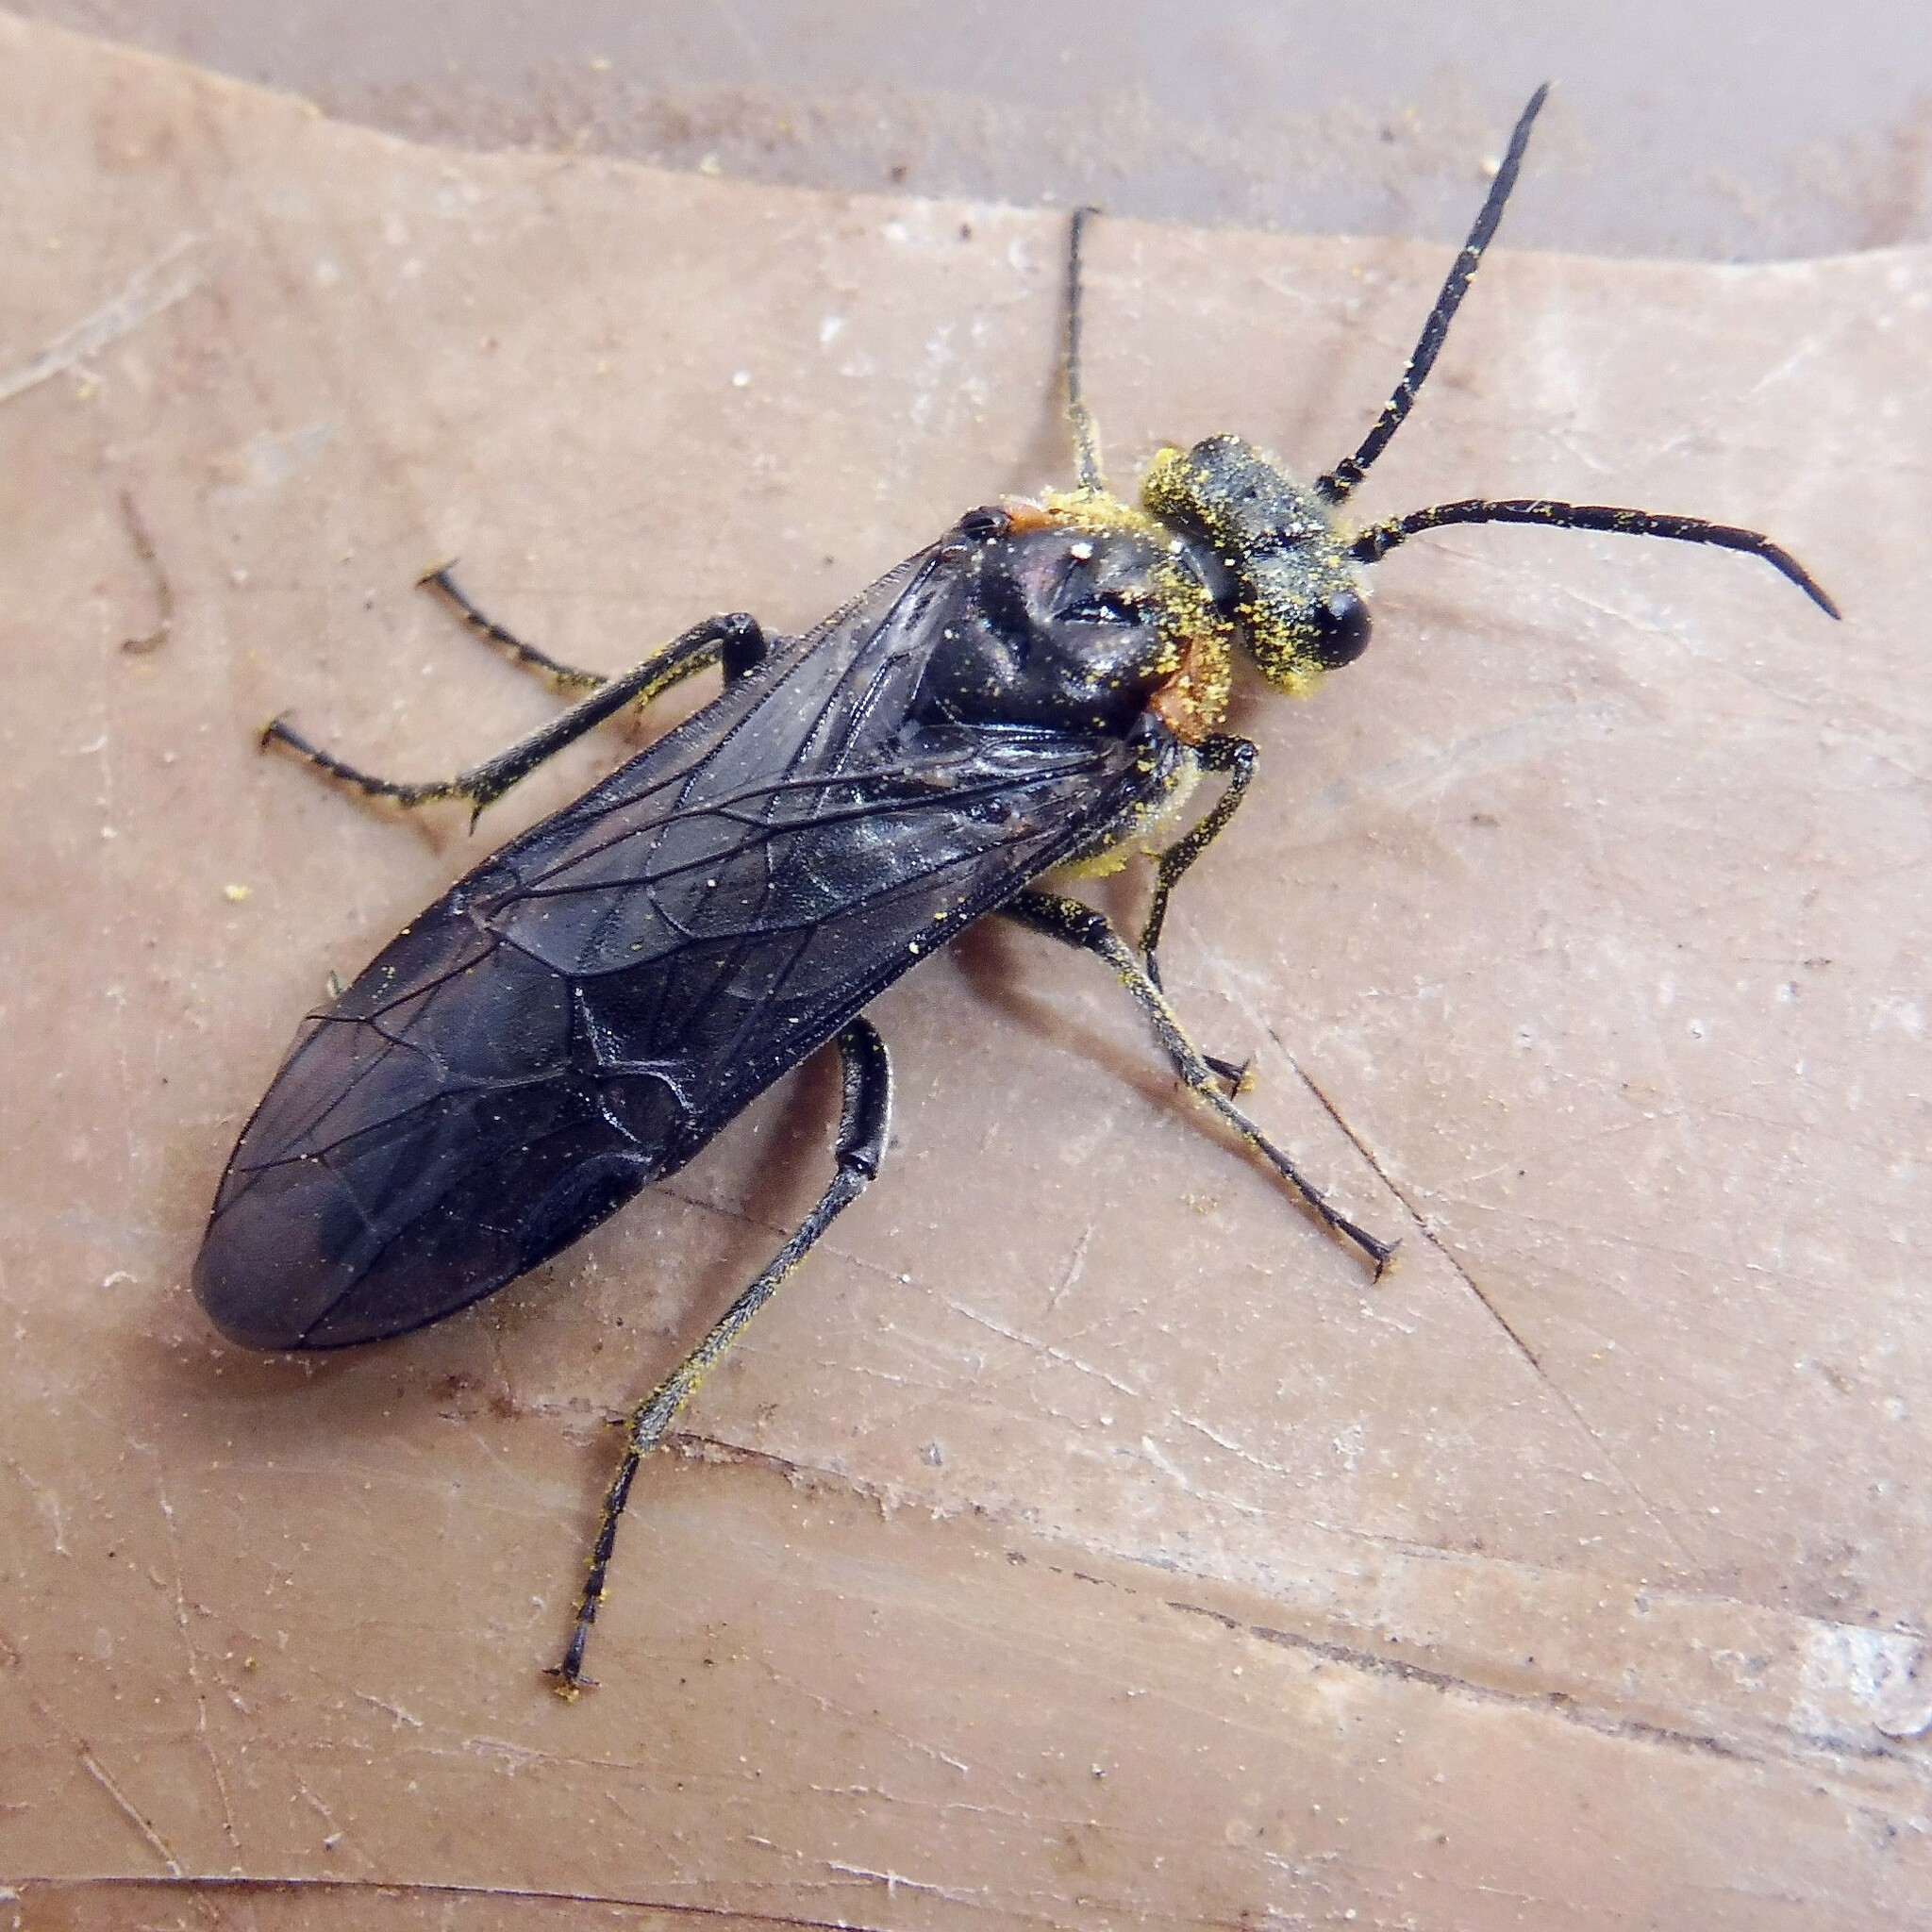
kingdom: Animalia
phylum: Arthropoda
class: Insecta
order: Hymenoptera
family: Tenthredinidae
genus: Dolerus
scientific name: Dolerus haematodes
